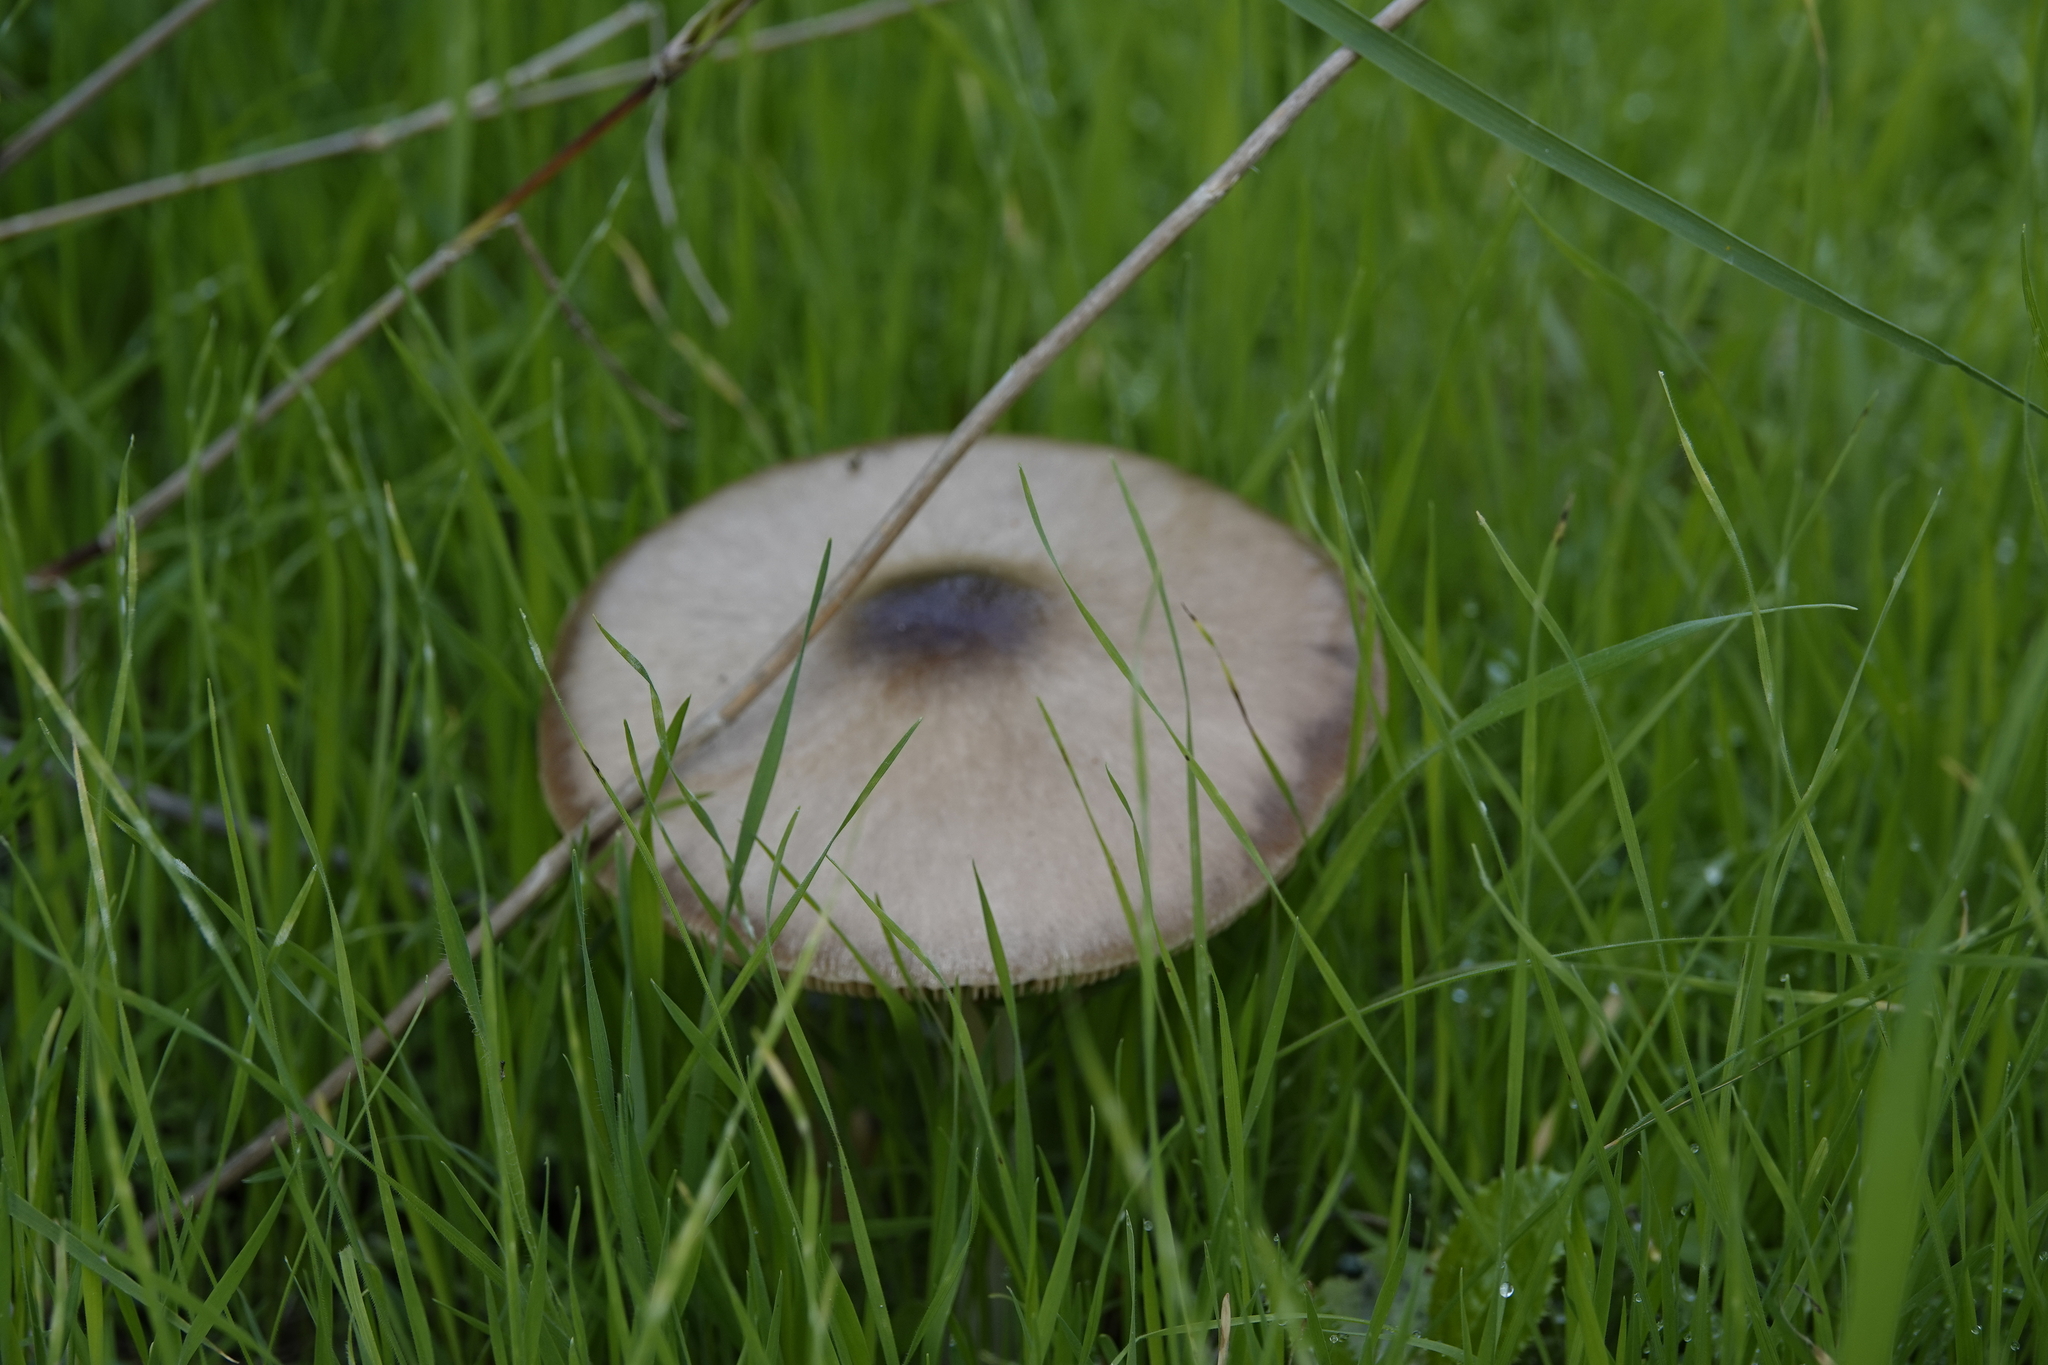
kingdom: Fungi
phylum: Basidiomycota
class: Agaricomycetes
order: Agaricales
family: Pluteaceae
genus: Volvopluteus
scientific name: Volvopluteus gloiocephalus
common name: Stubble rosegill
